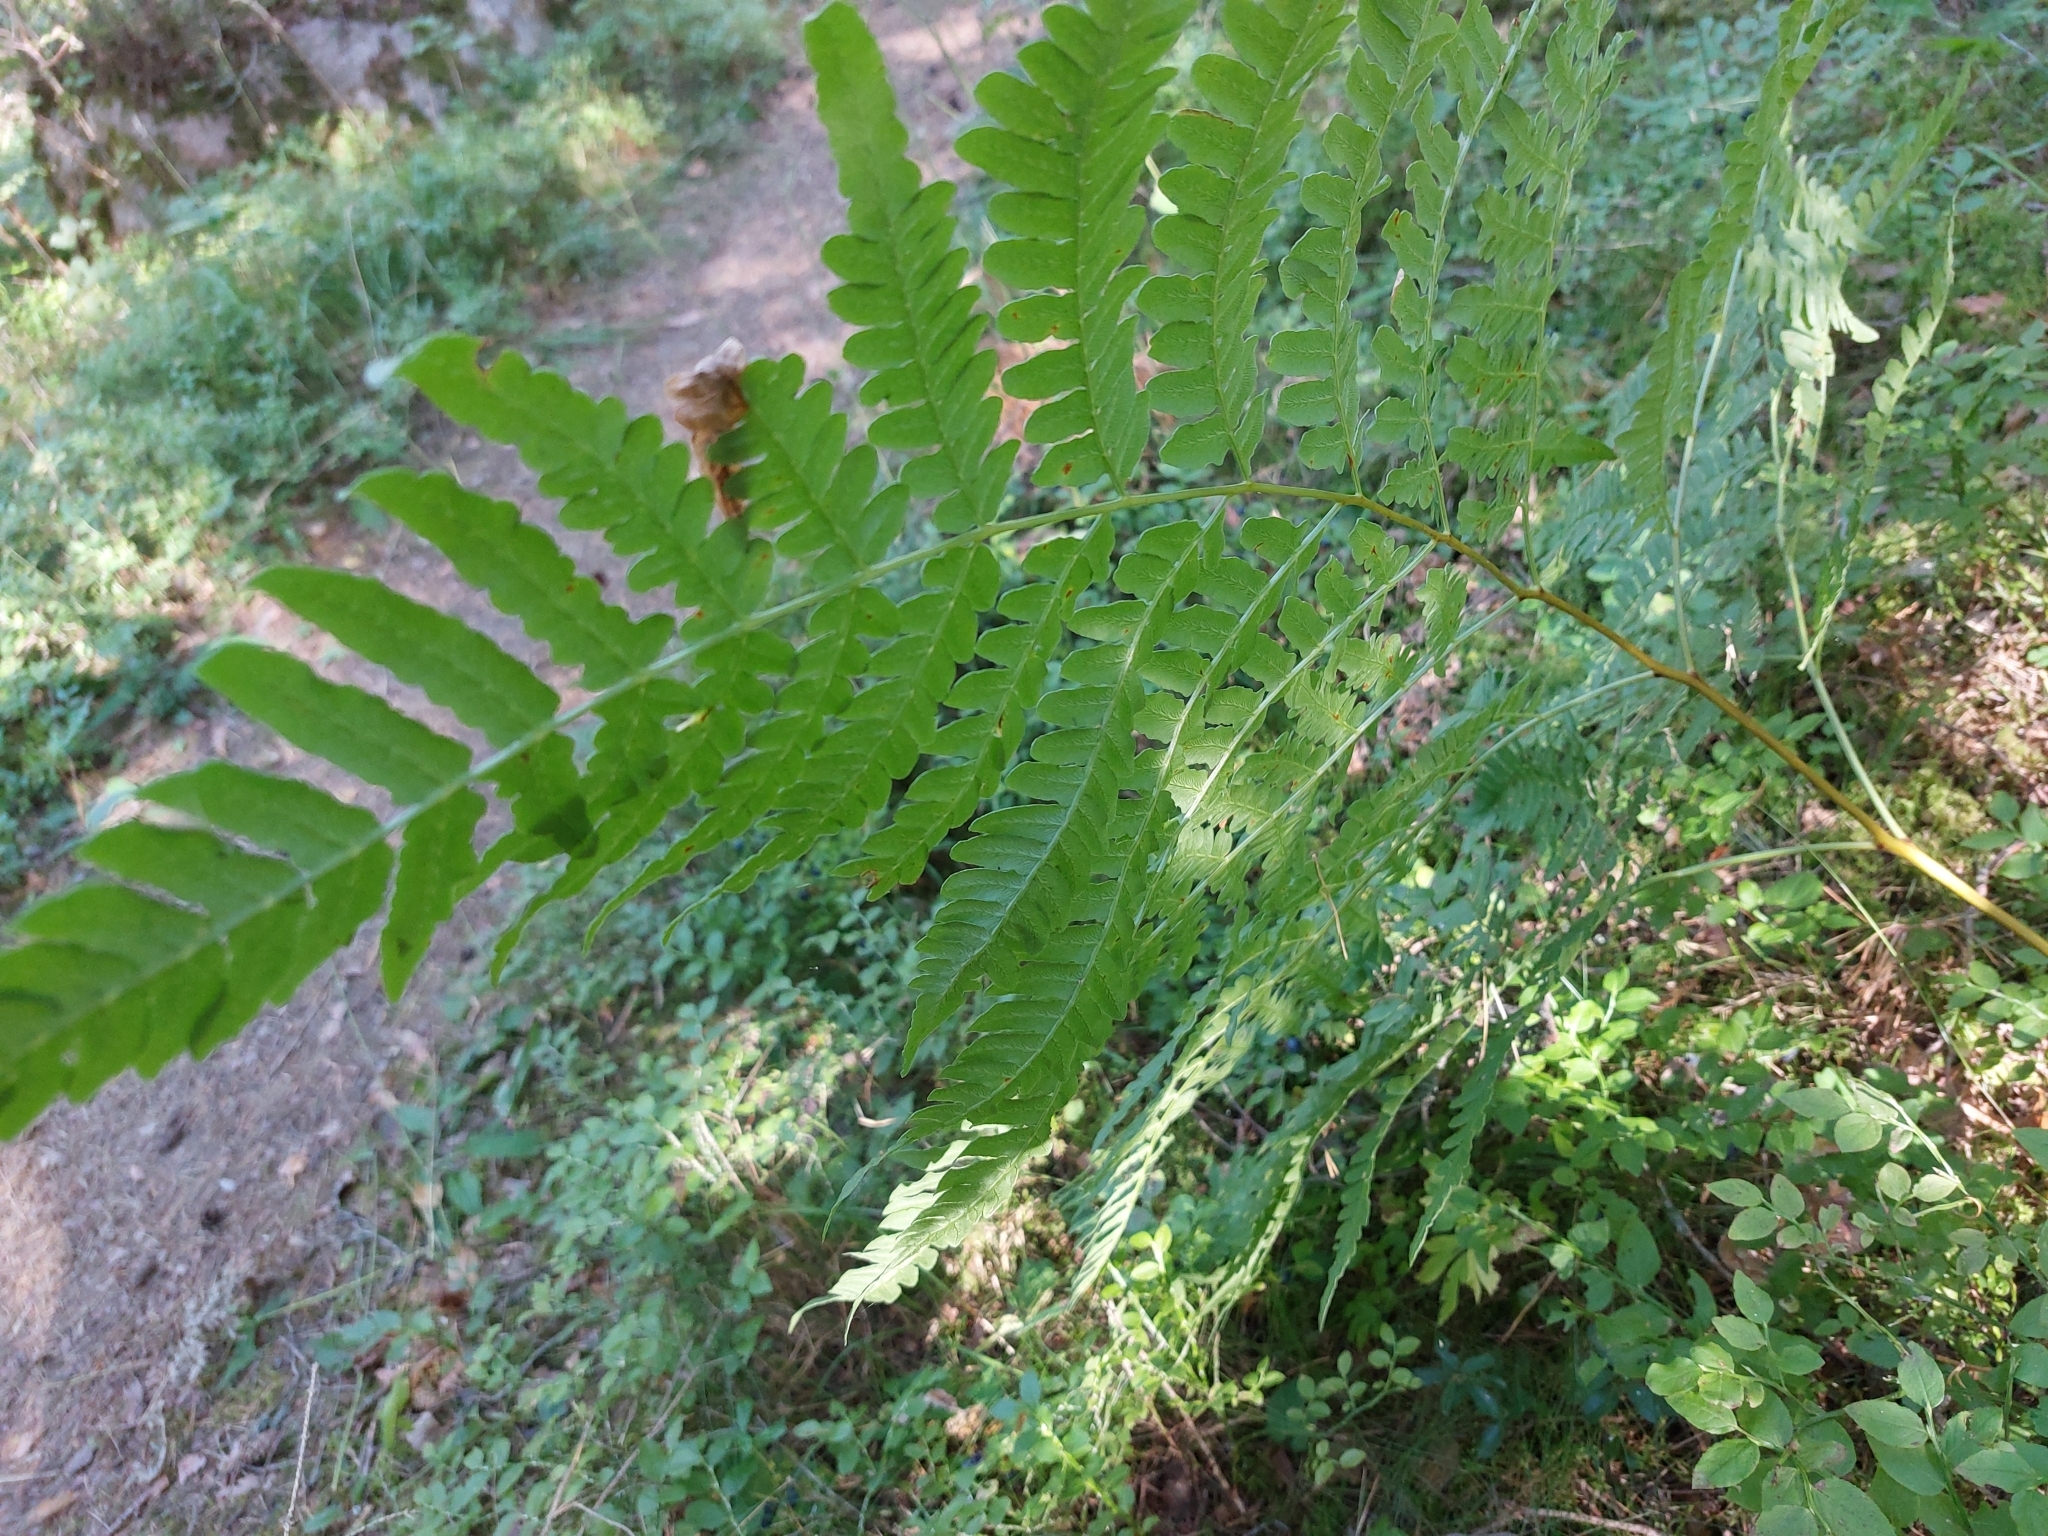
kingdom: Plantae
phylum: Tracheophyta
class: Polypodiopsida
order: Polypodiales
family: Dennstaedtiaceae
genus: Pteridium
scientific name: Pteridium aquilinum
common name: Bracken
